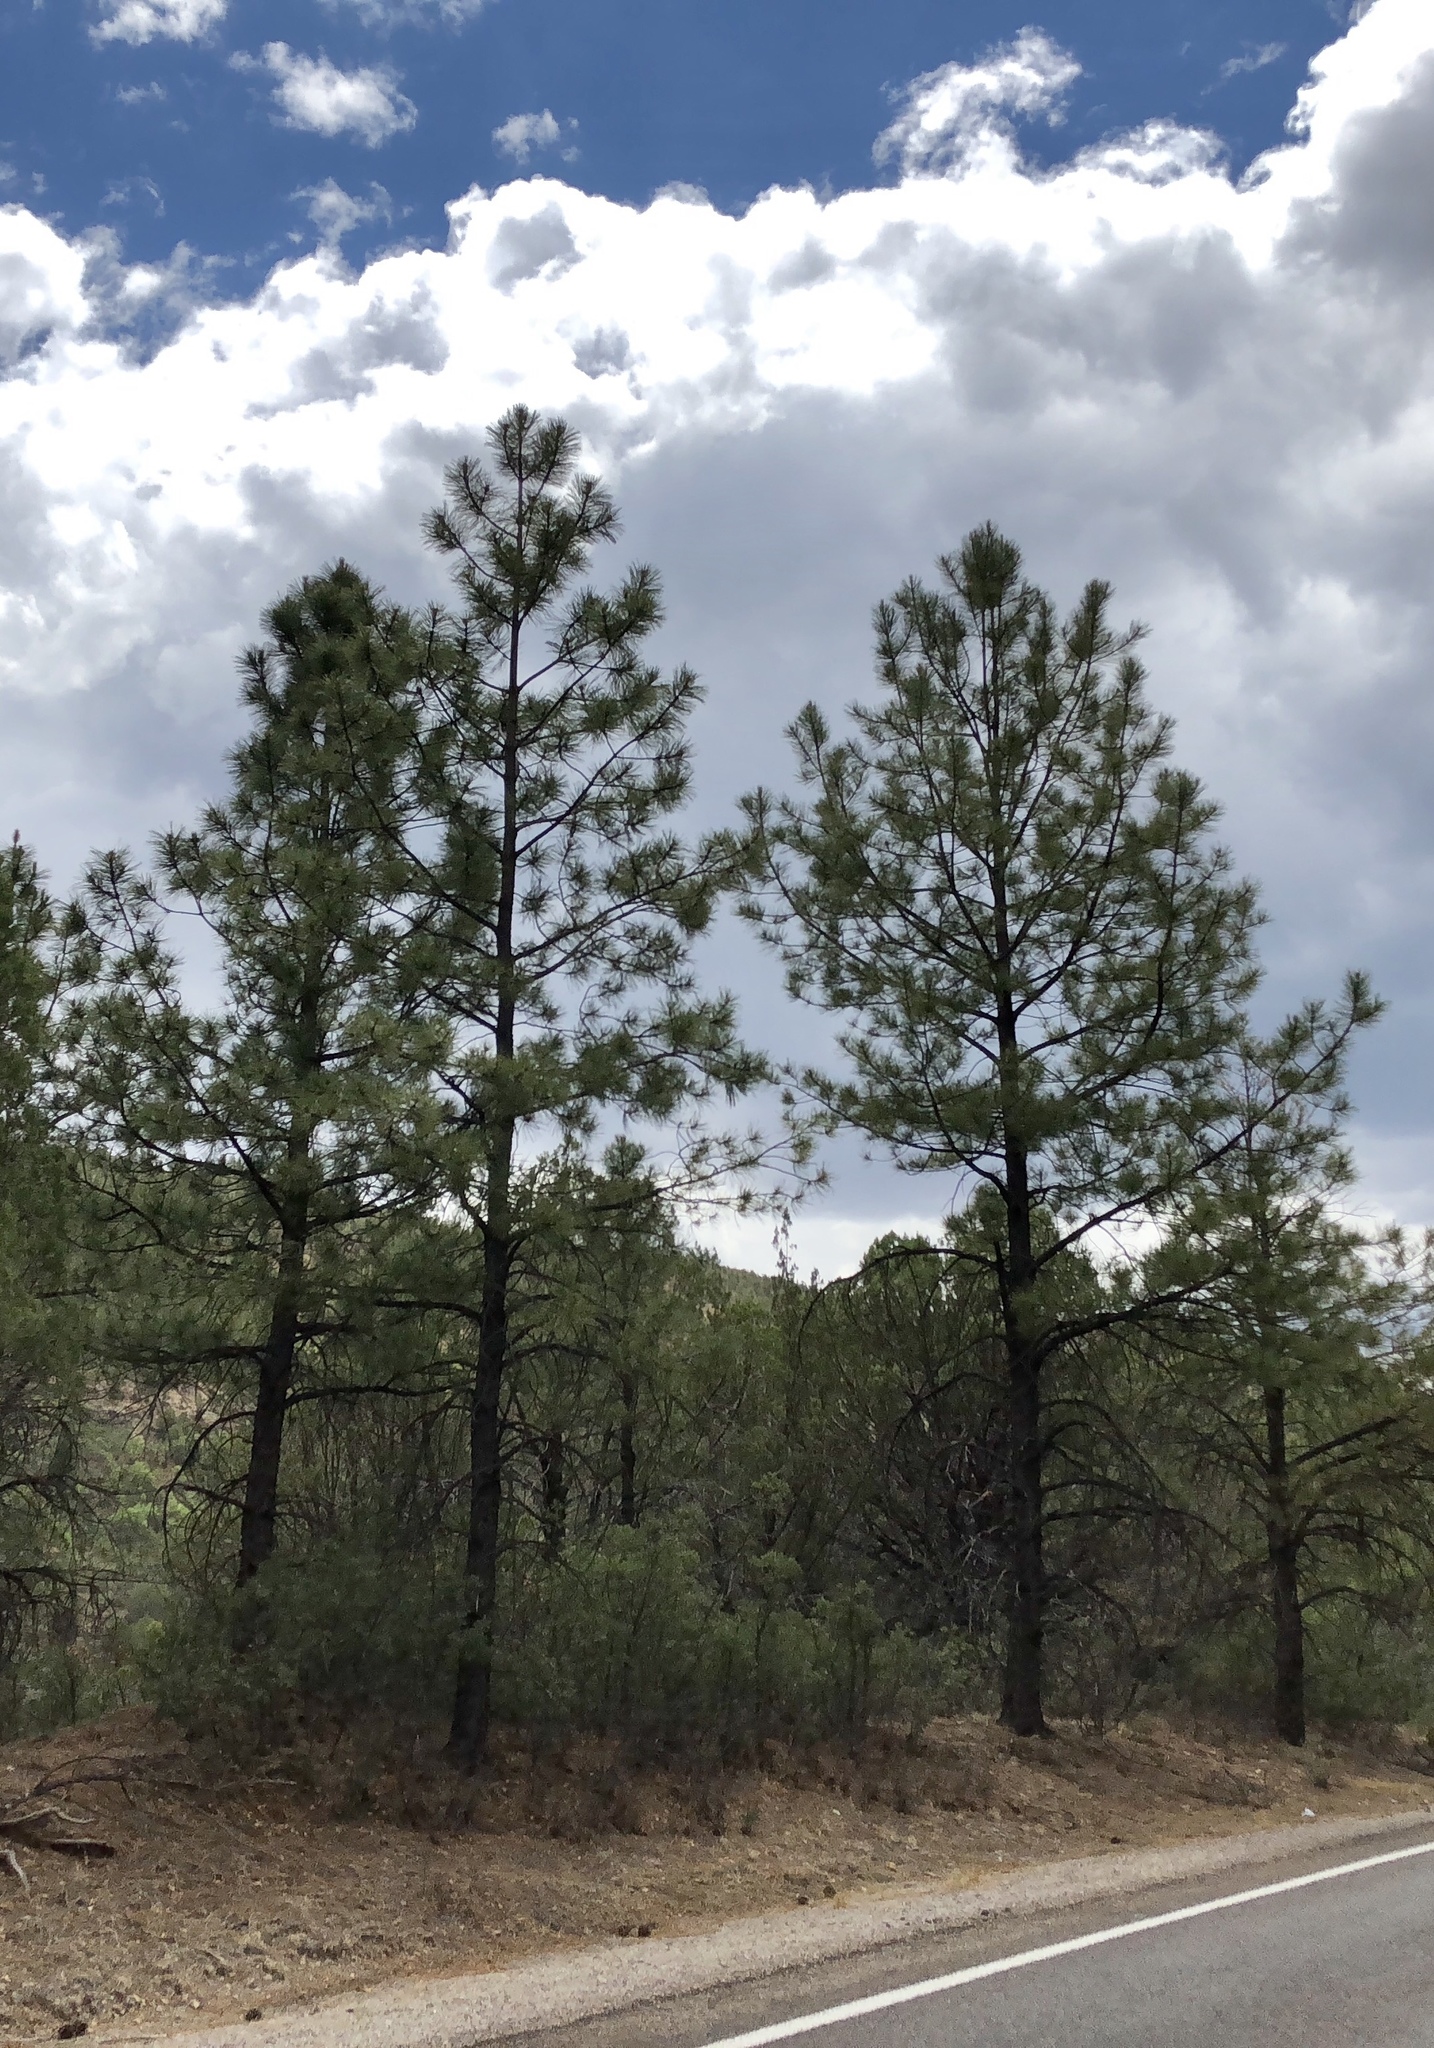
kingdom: Plantae
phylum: Tracheophyta
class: Pinopsida
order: Pinales
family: Pinaceae
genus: Pinus
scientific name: Pinus ponderosa
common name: Western yellow-pine
